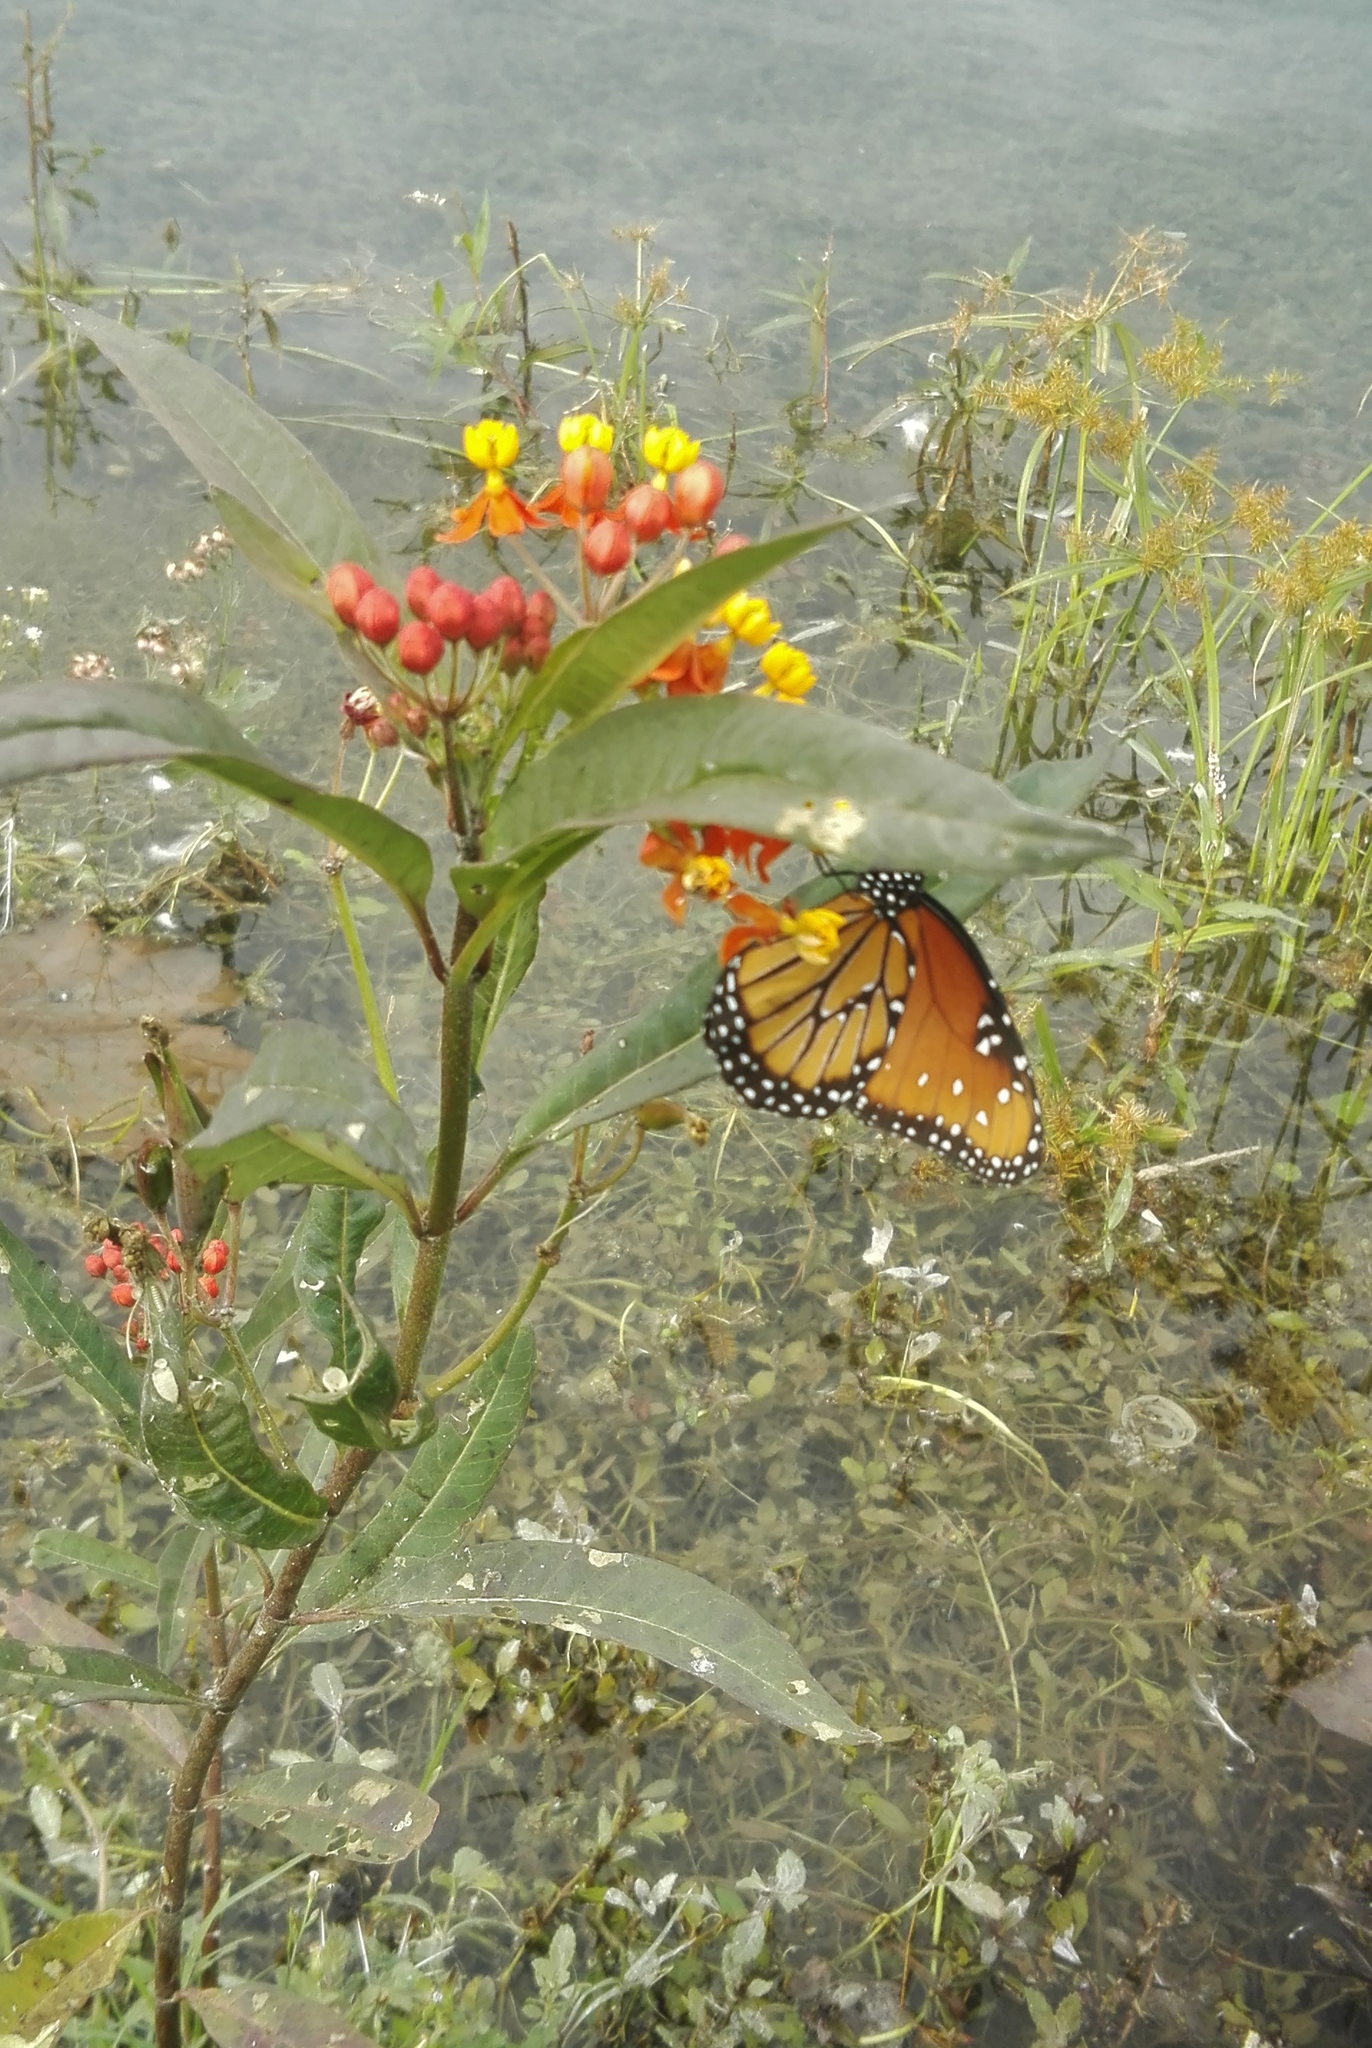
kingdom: Animalia
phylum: Arthropoda
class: Insecta
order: Lepidoptera
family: Nymphalidae
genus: Danaus
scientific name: Danaus gilippus
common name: Queen
